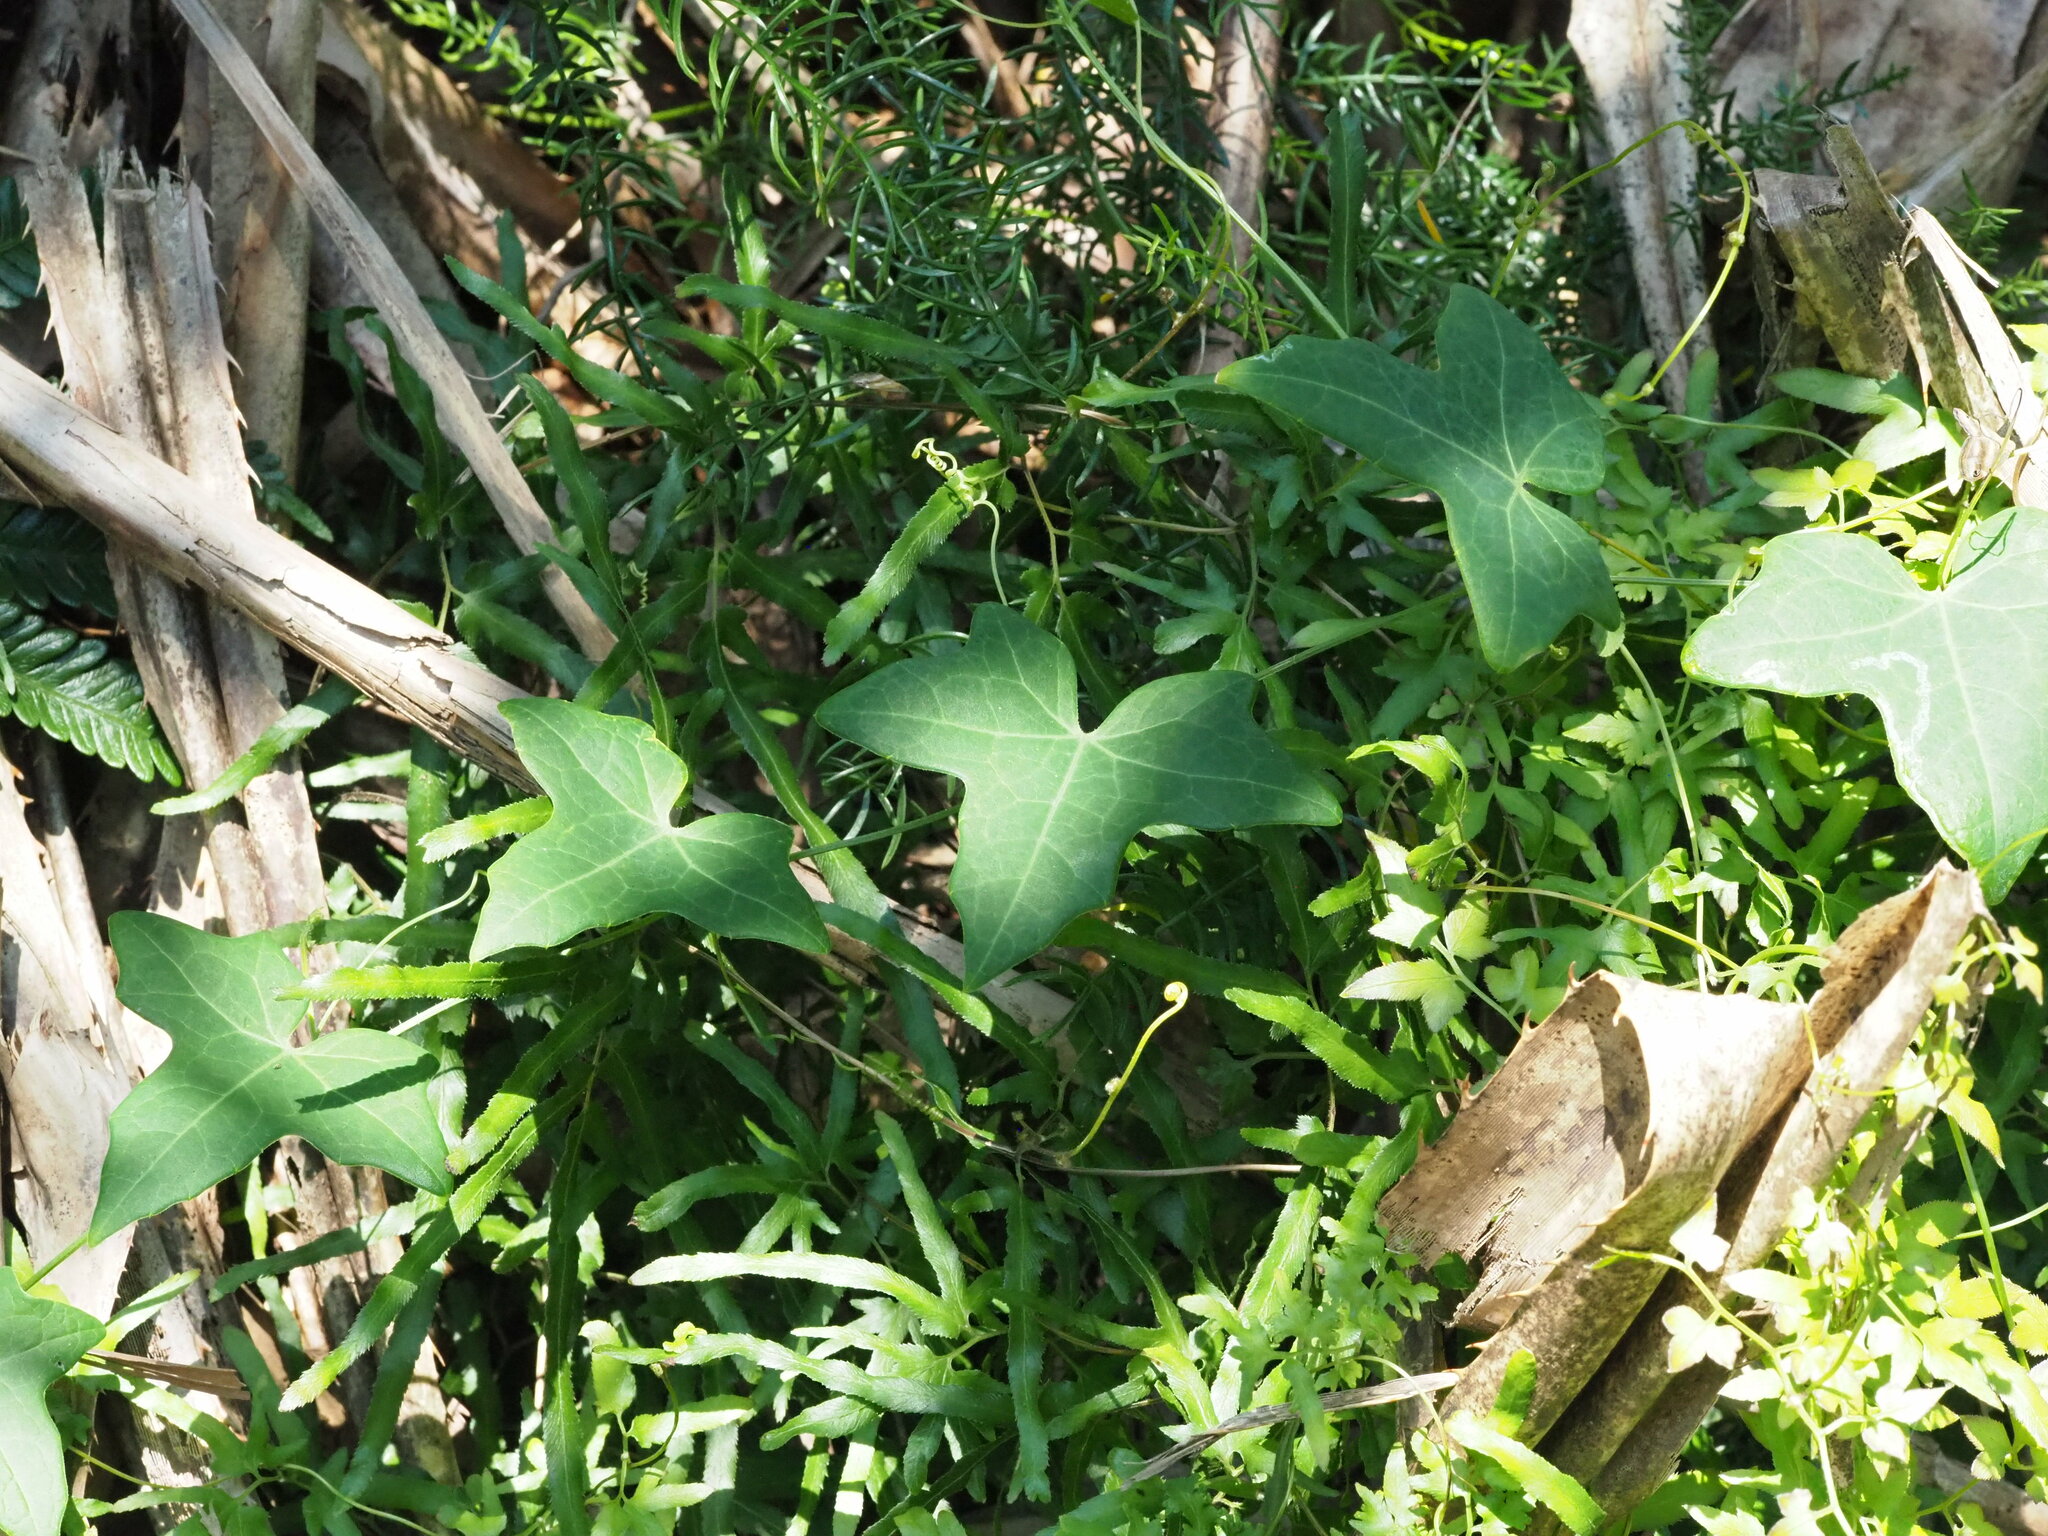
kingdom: Plantae
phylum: Tracheophyta
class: Magnoliopsida
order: Cucurbitales
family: Cucurbitaceae
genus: Solena
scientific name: Solena amplexicaulis
